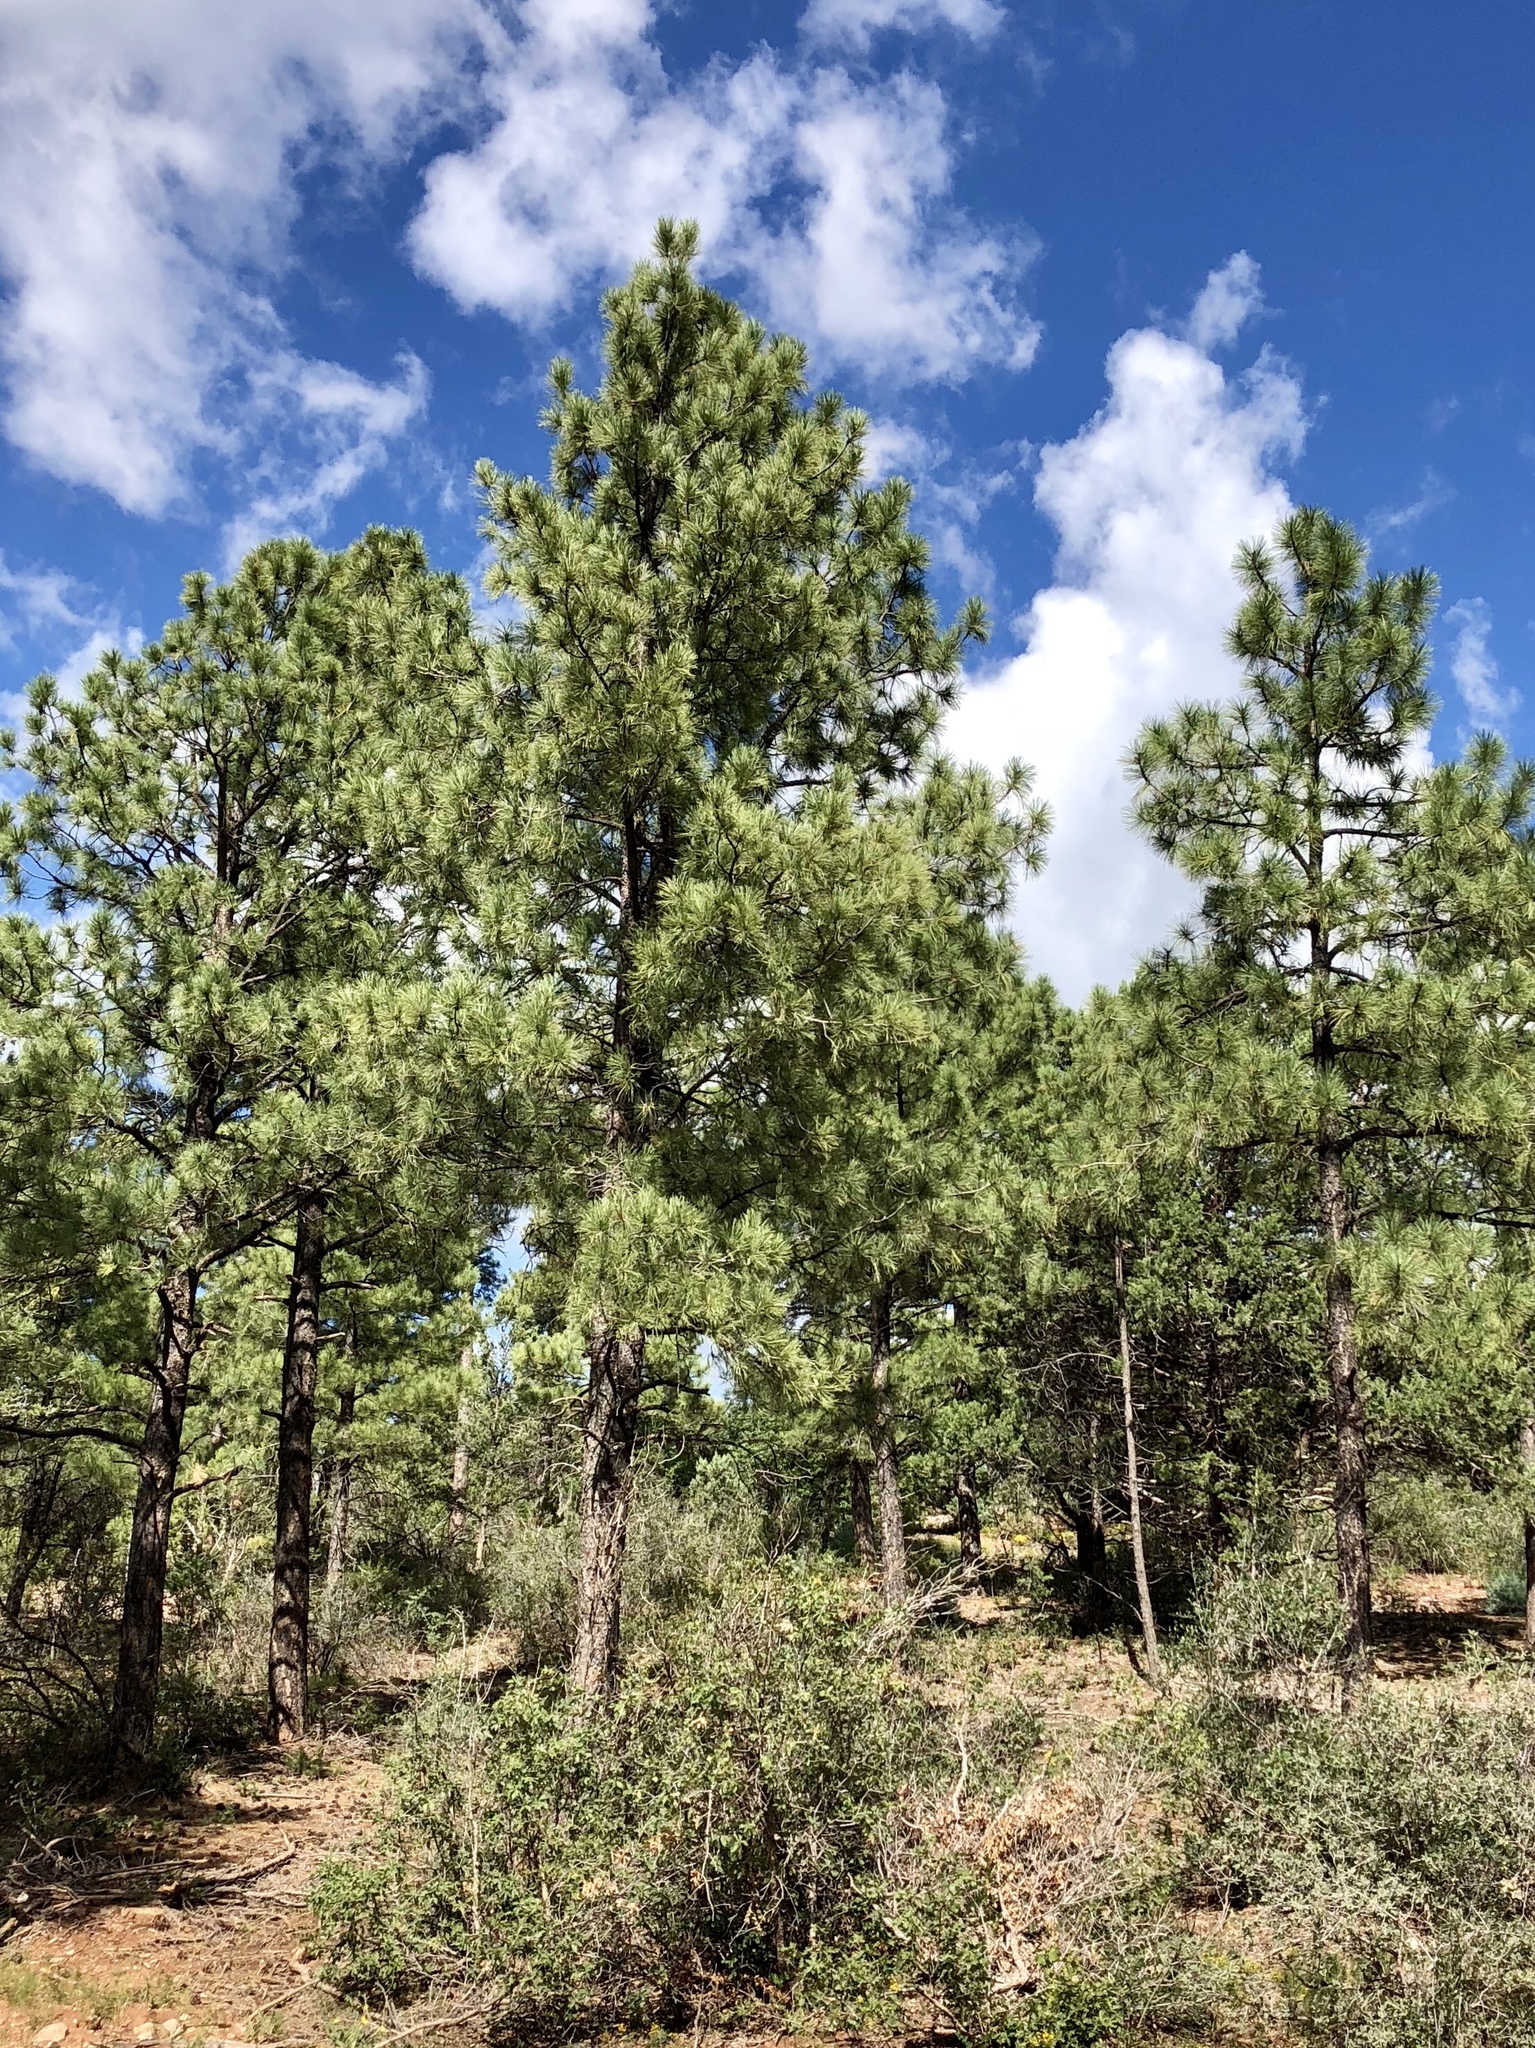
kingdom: Plantae
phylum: Tracheophyta
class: Pinopsida
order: Pinales
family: Pinaceae
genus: Pinus
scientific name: Pinus ponderosa
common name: Western yellow-pine
